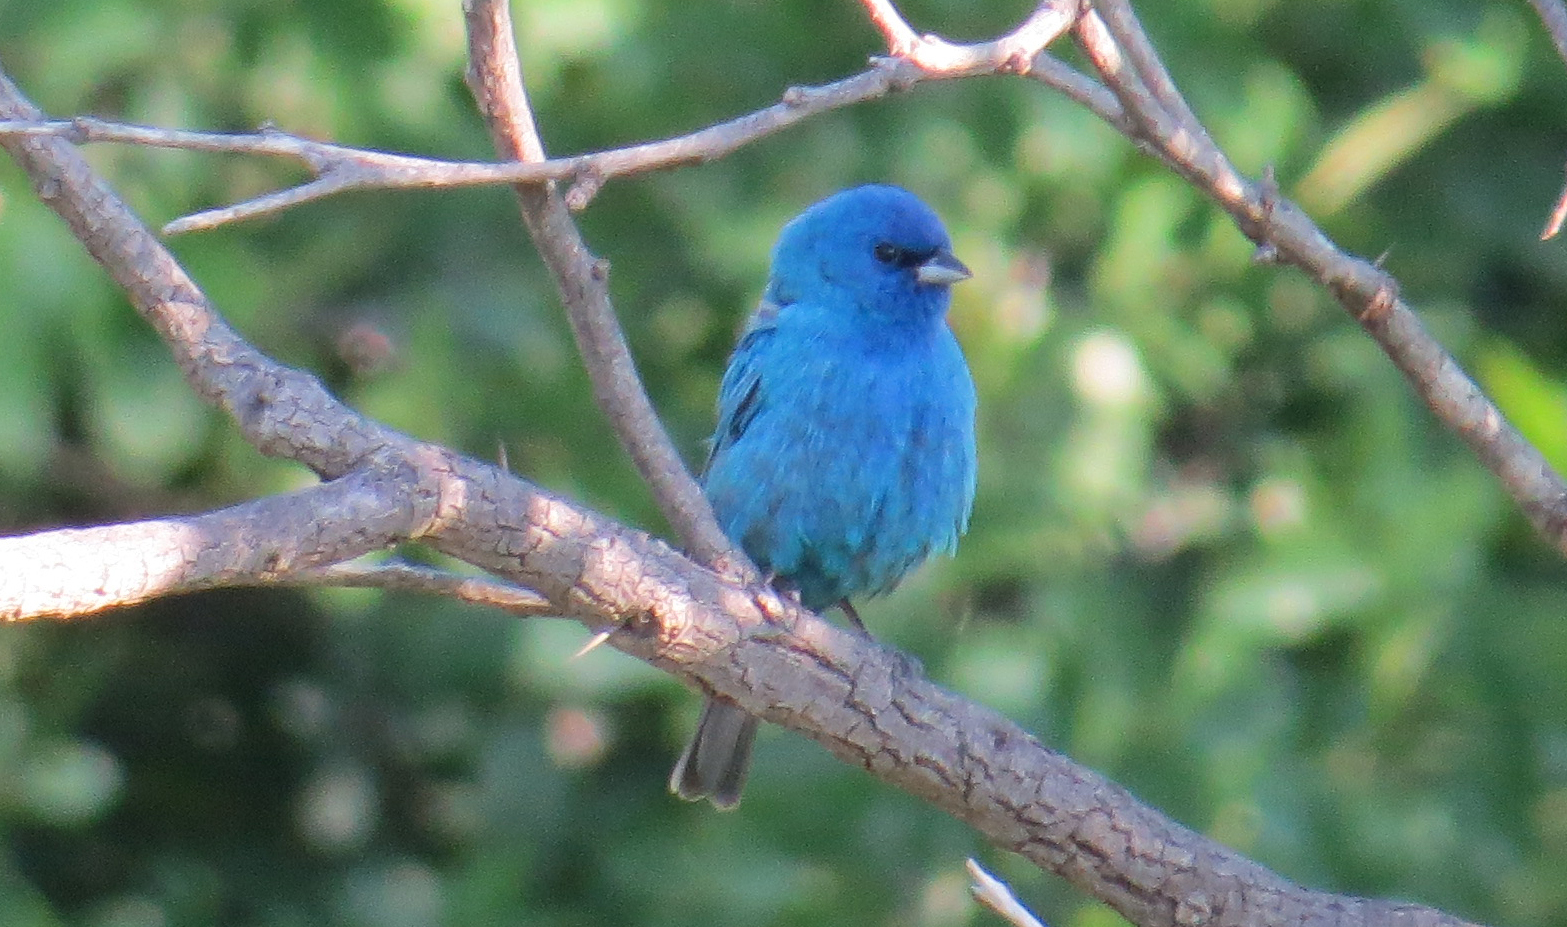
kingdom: Animalia
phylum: Chordata
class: Aves
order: Passeriformes
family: Cardinalidae
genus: Passerina
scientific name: Passerina cyanea
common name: Indigo bunting
